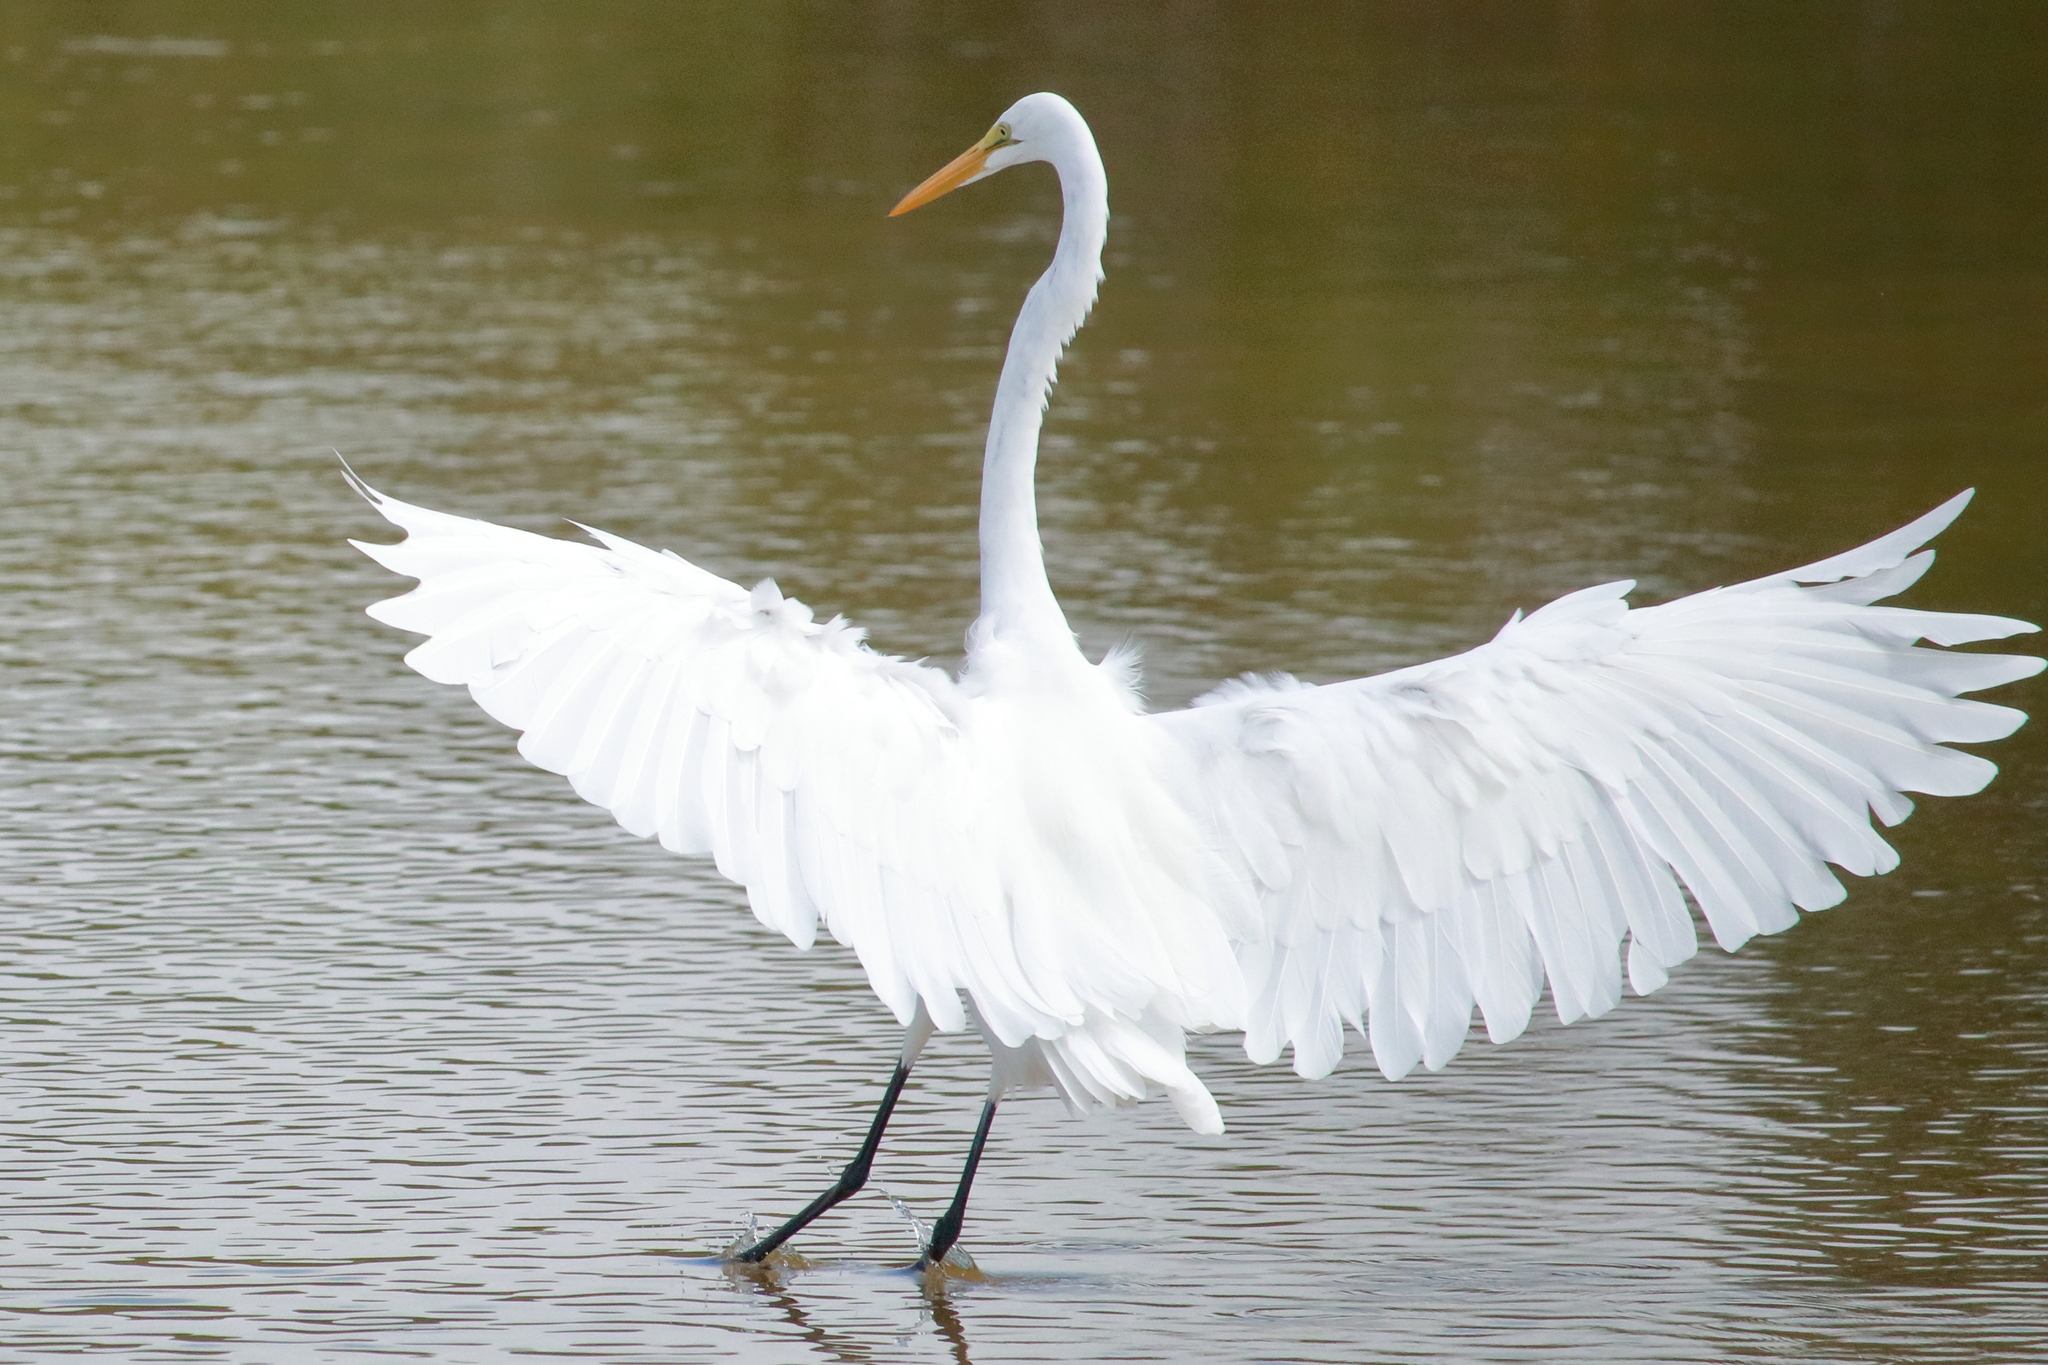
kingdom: Animalia
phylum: Chordata
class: Aves
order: Pelecaniformes
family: Ardeidae
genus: Ardea
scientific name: Ardea alba
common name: Great egret
